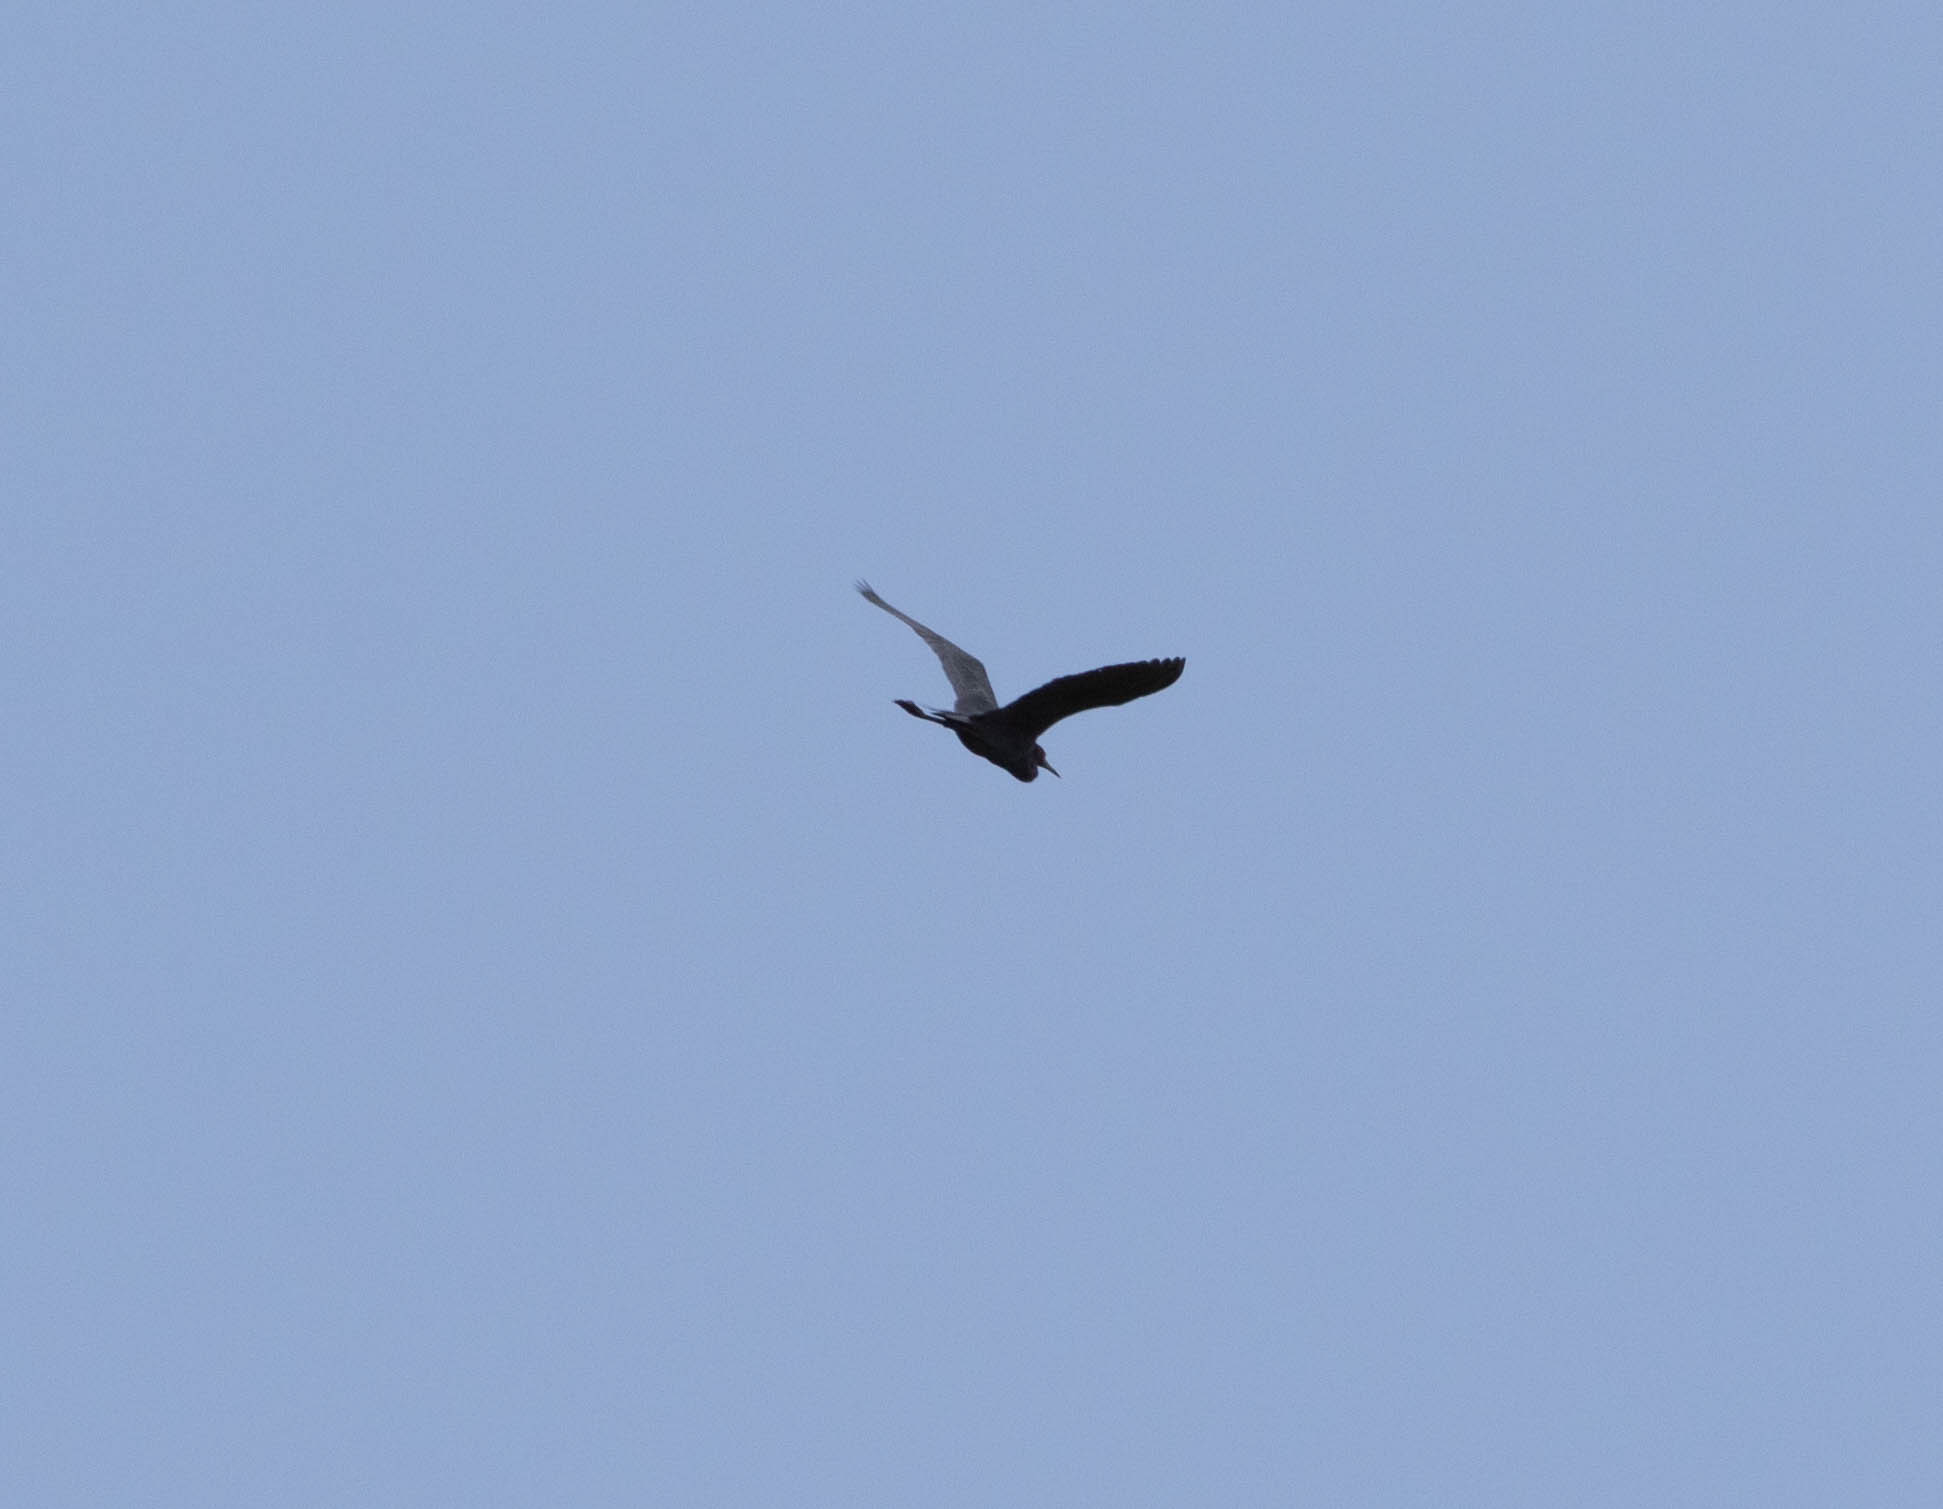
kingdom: Animalia
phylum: Chordata
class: Aves
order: Pelecaniformes
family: Ardeidae
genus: Egretta
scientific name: Egretta caerulea
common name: Little blue heron
